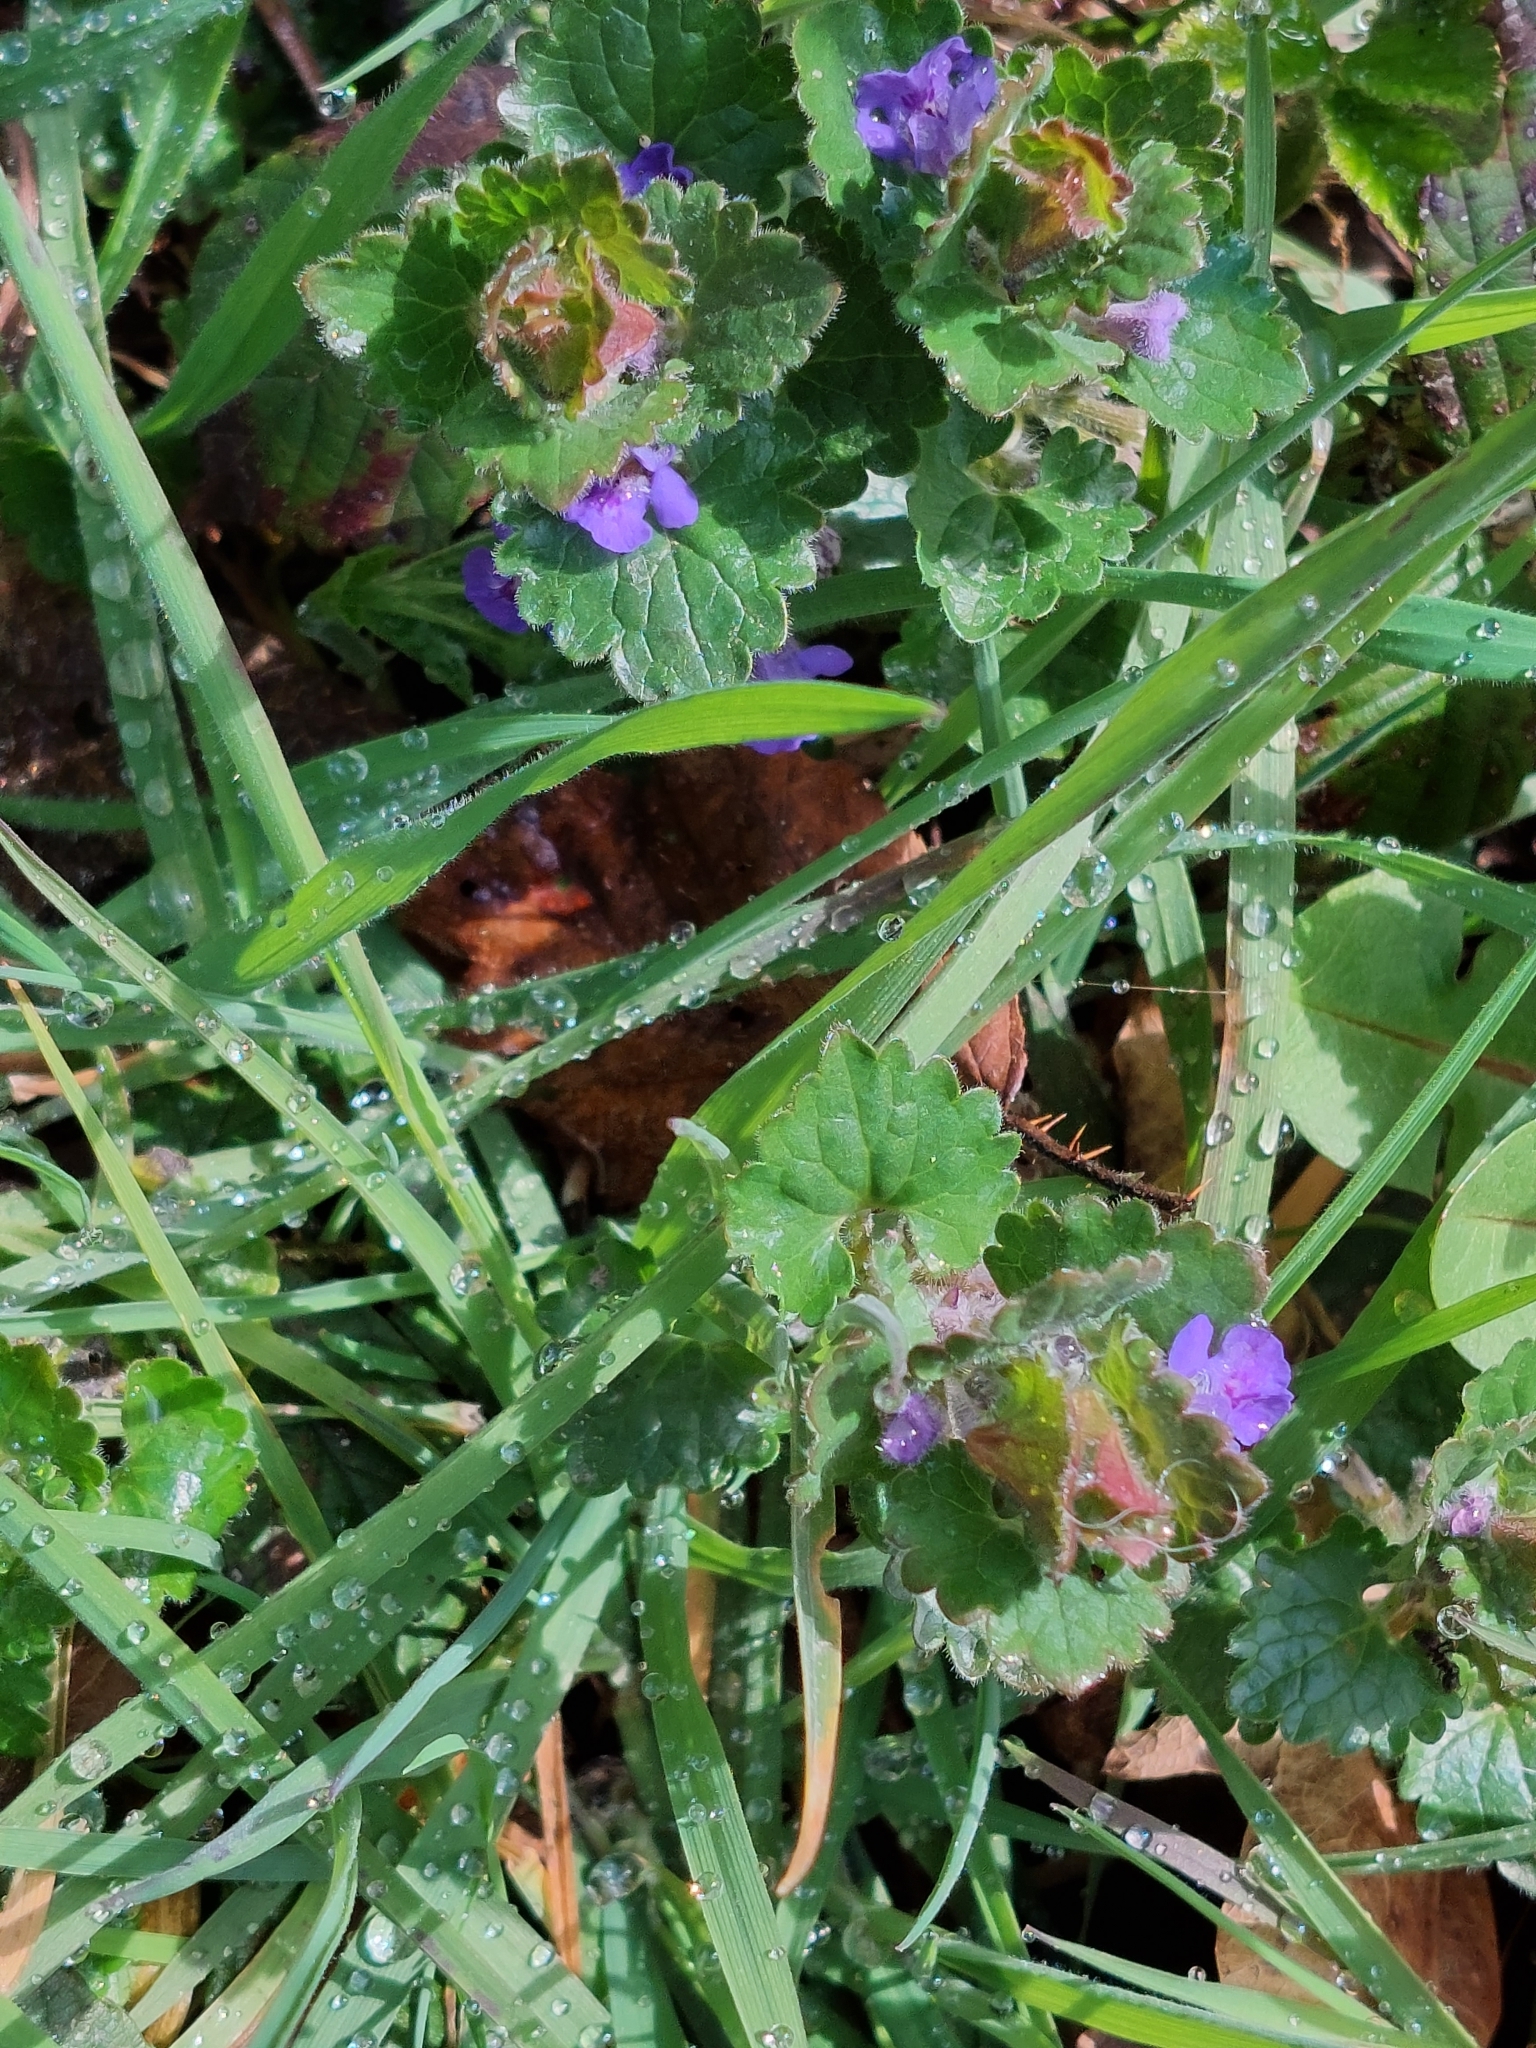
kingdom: Plantae
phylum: Tracheophyta
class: Magnoliopsida
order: Lamiales
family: Lamiaceae
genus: Glechoma
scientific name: Glechoma hederacea
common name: Ground ivy
